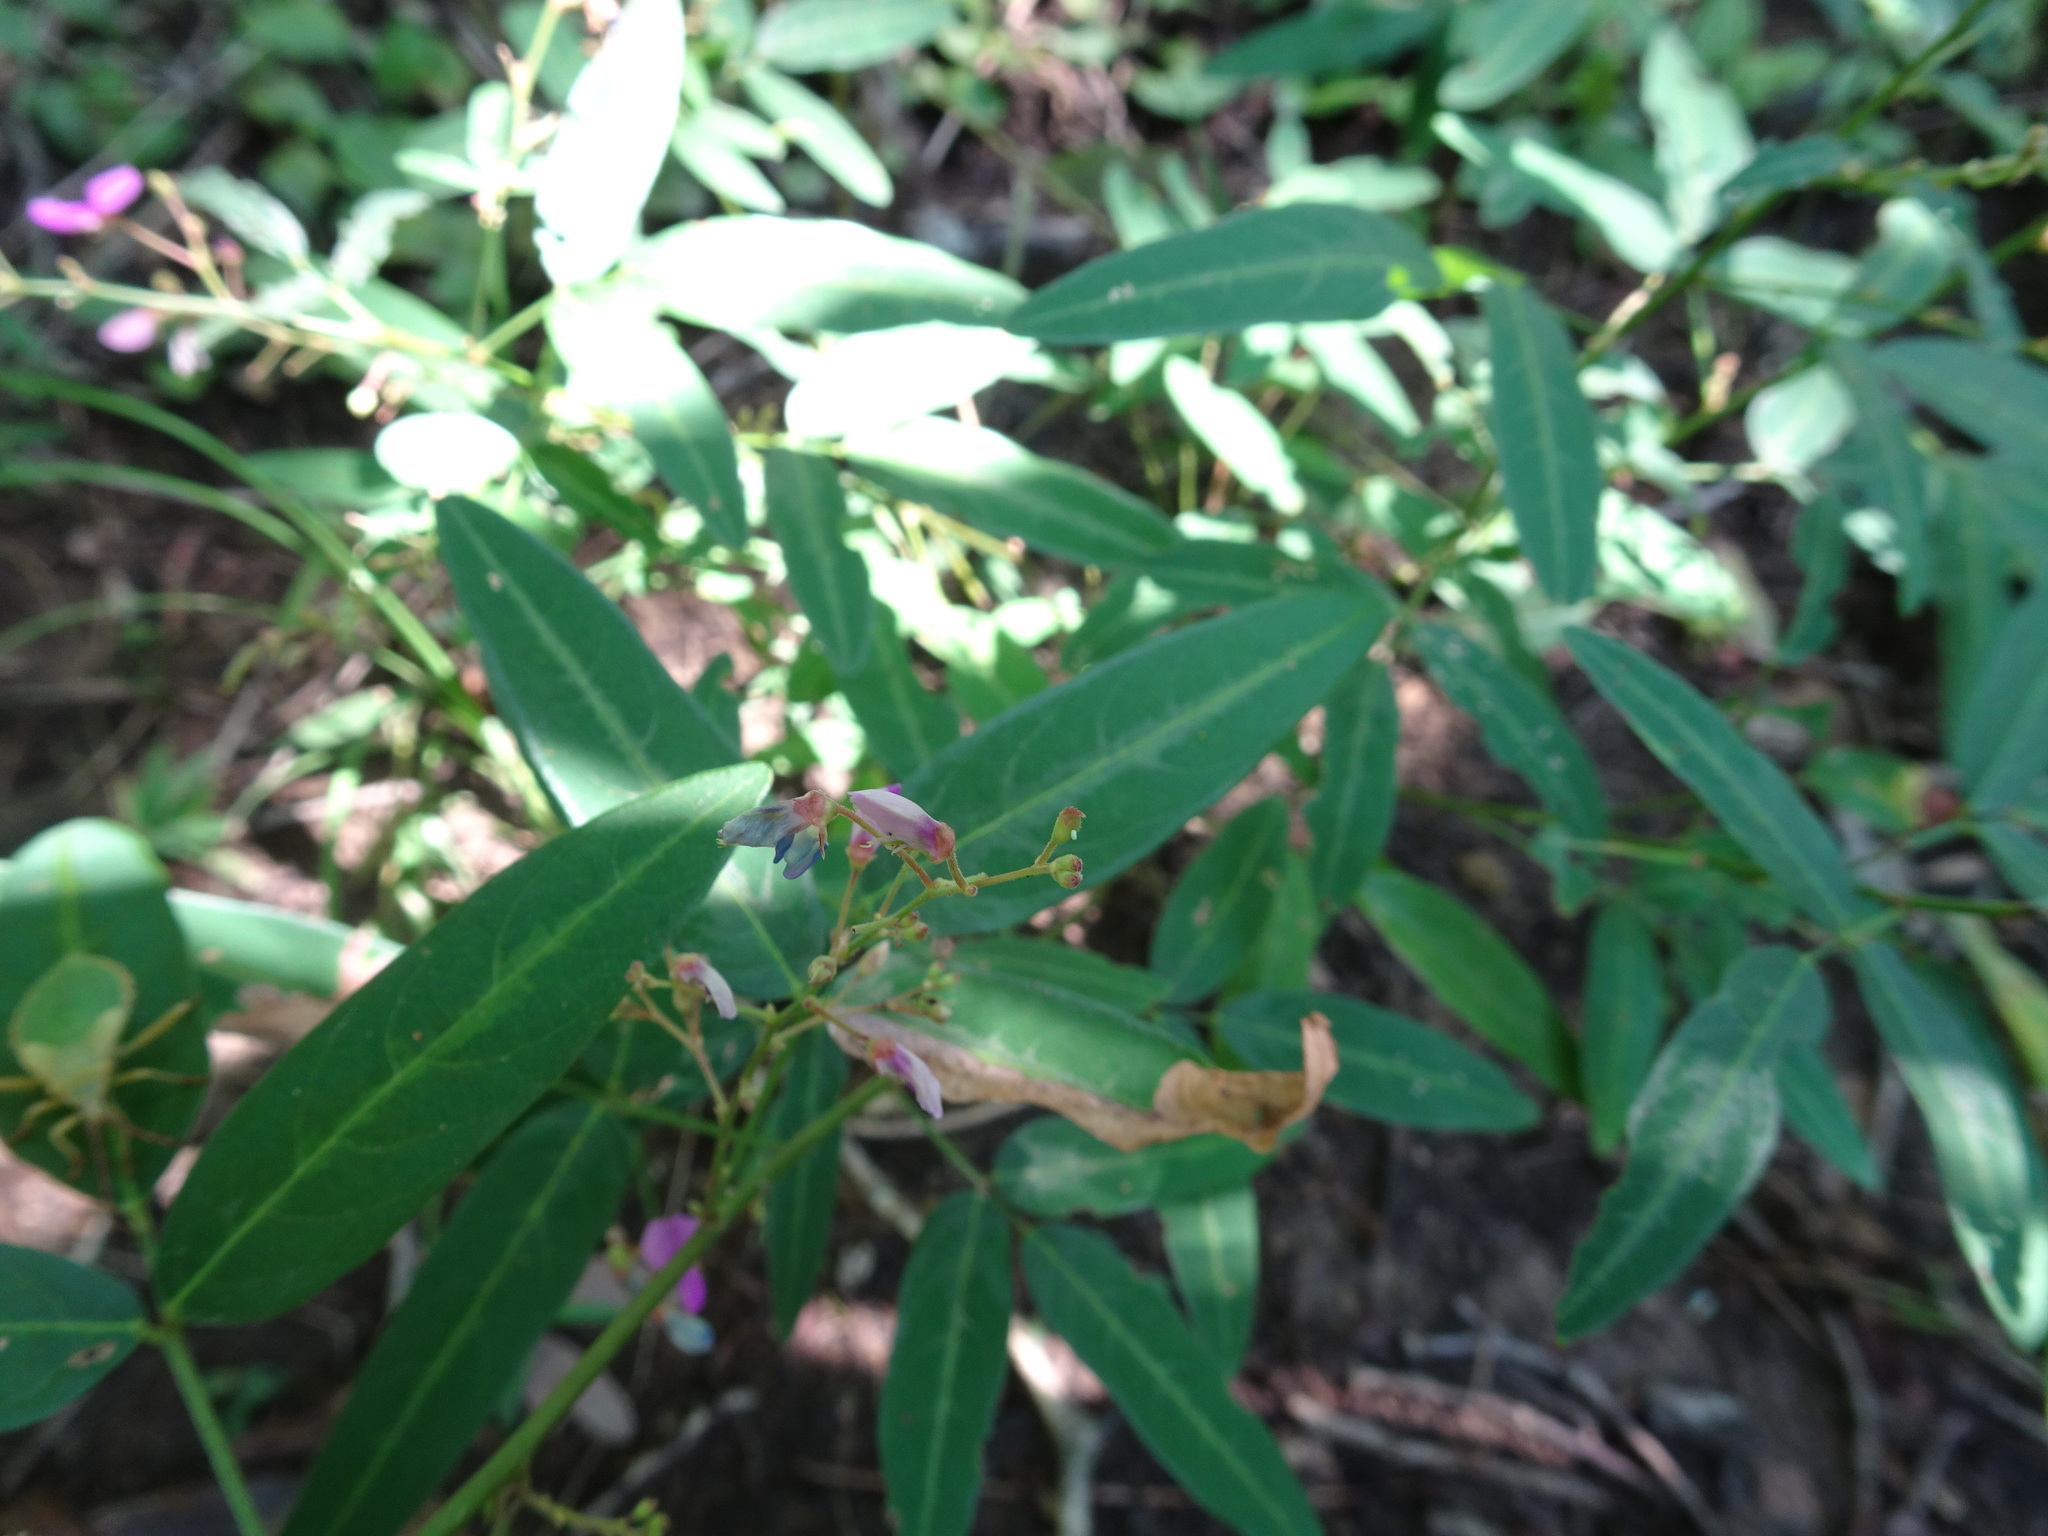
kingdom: Plantae
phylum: Tracheophyta
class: Magnoliopsida
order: Fabales
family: Fabaceae
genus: Desmodium
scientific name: Desmodium paniculatum
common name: Panicled tick-clover
